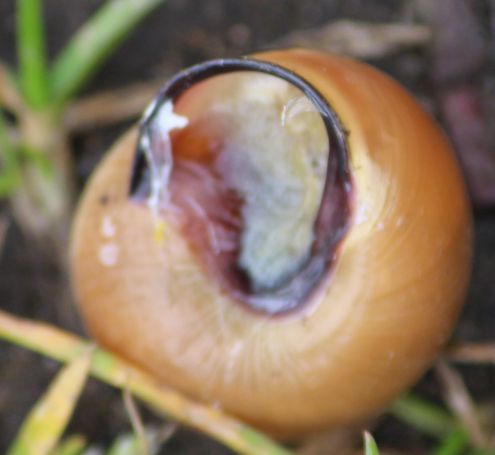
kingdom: Animalia
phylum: Mollusca
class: Gastropoda
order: Stylommatophora
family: Helicidae
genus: Cepaea
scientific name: Cepaea nemoralis
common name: Grovesnail
